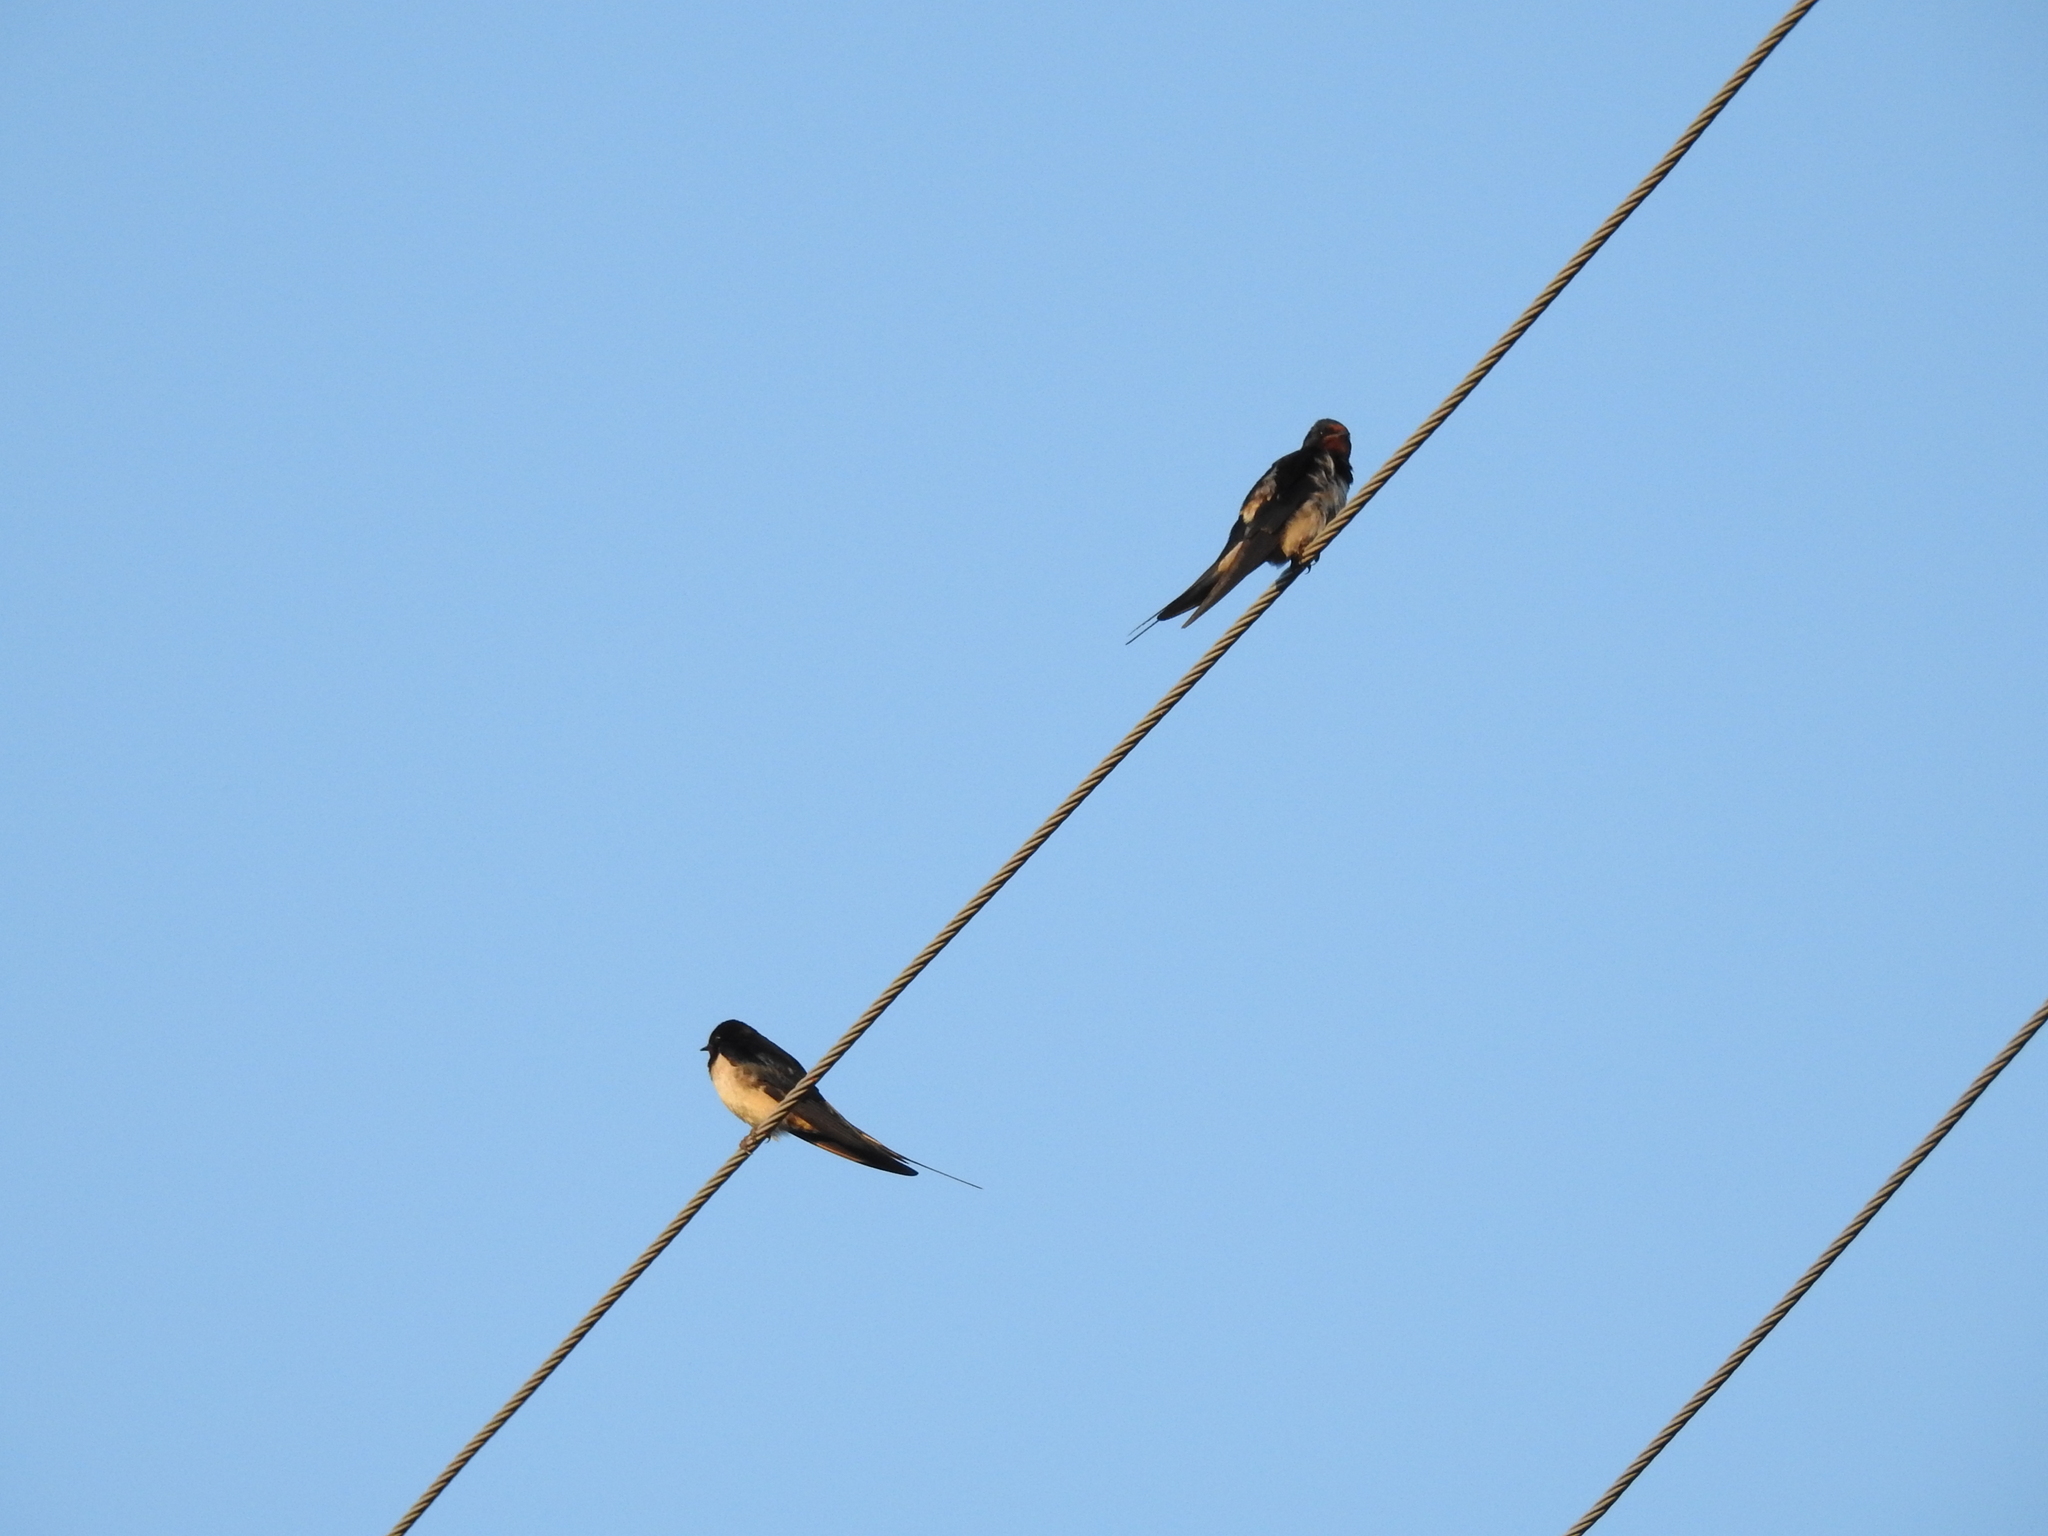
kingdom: Animalia
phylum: Chordata
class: Aves
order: Passeriformes
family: Hirundinidae
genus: Hirundo
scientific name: Hirundo rustica
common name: Barn swallow
